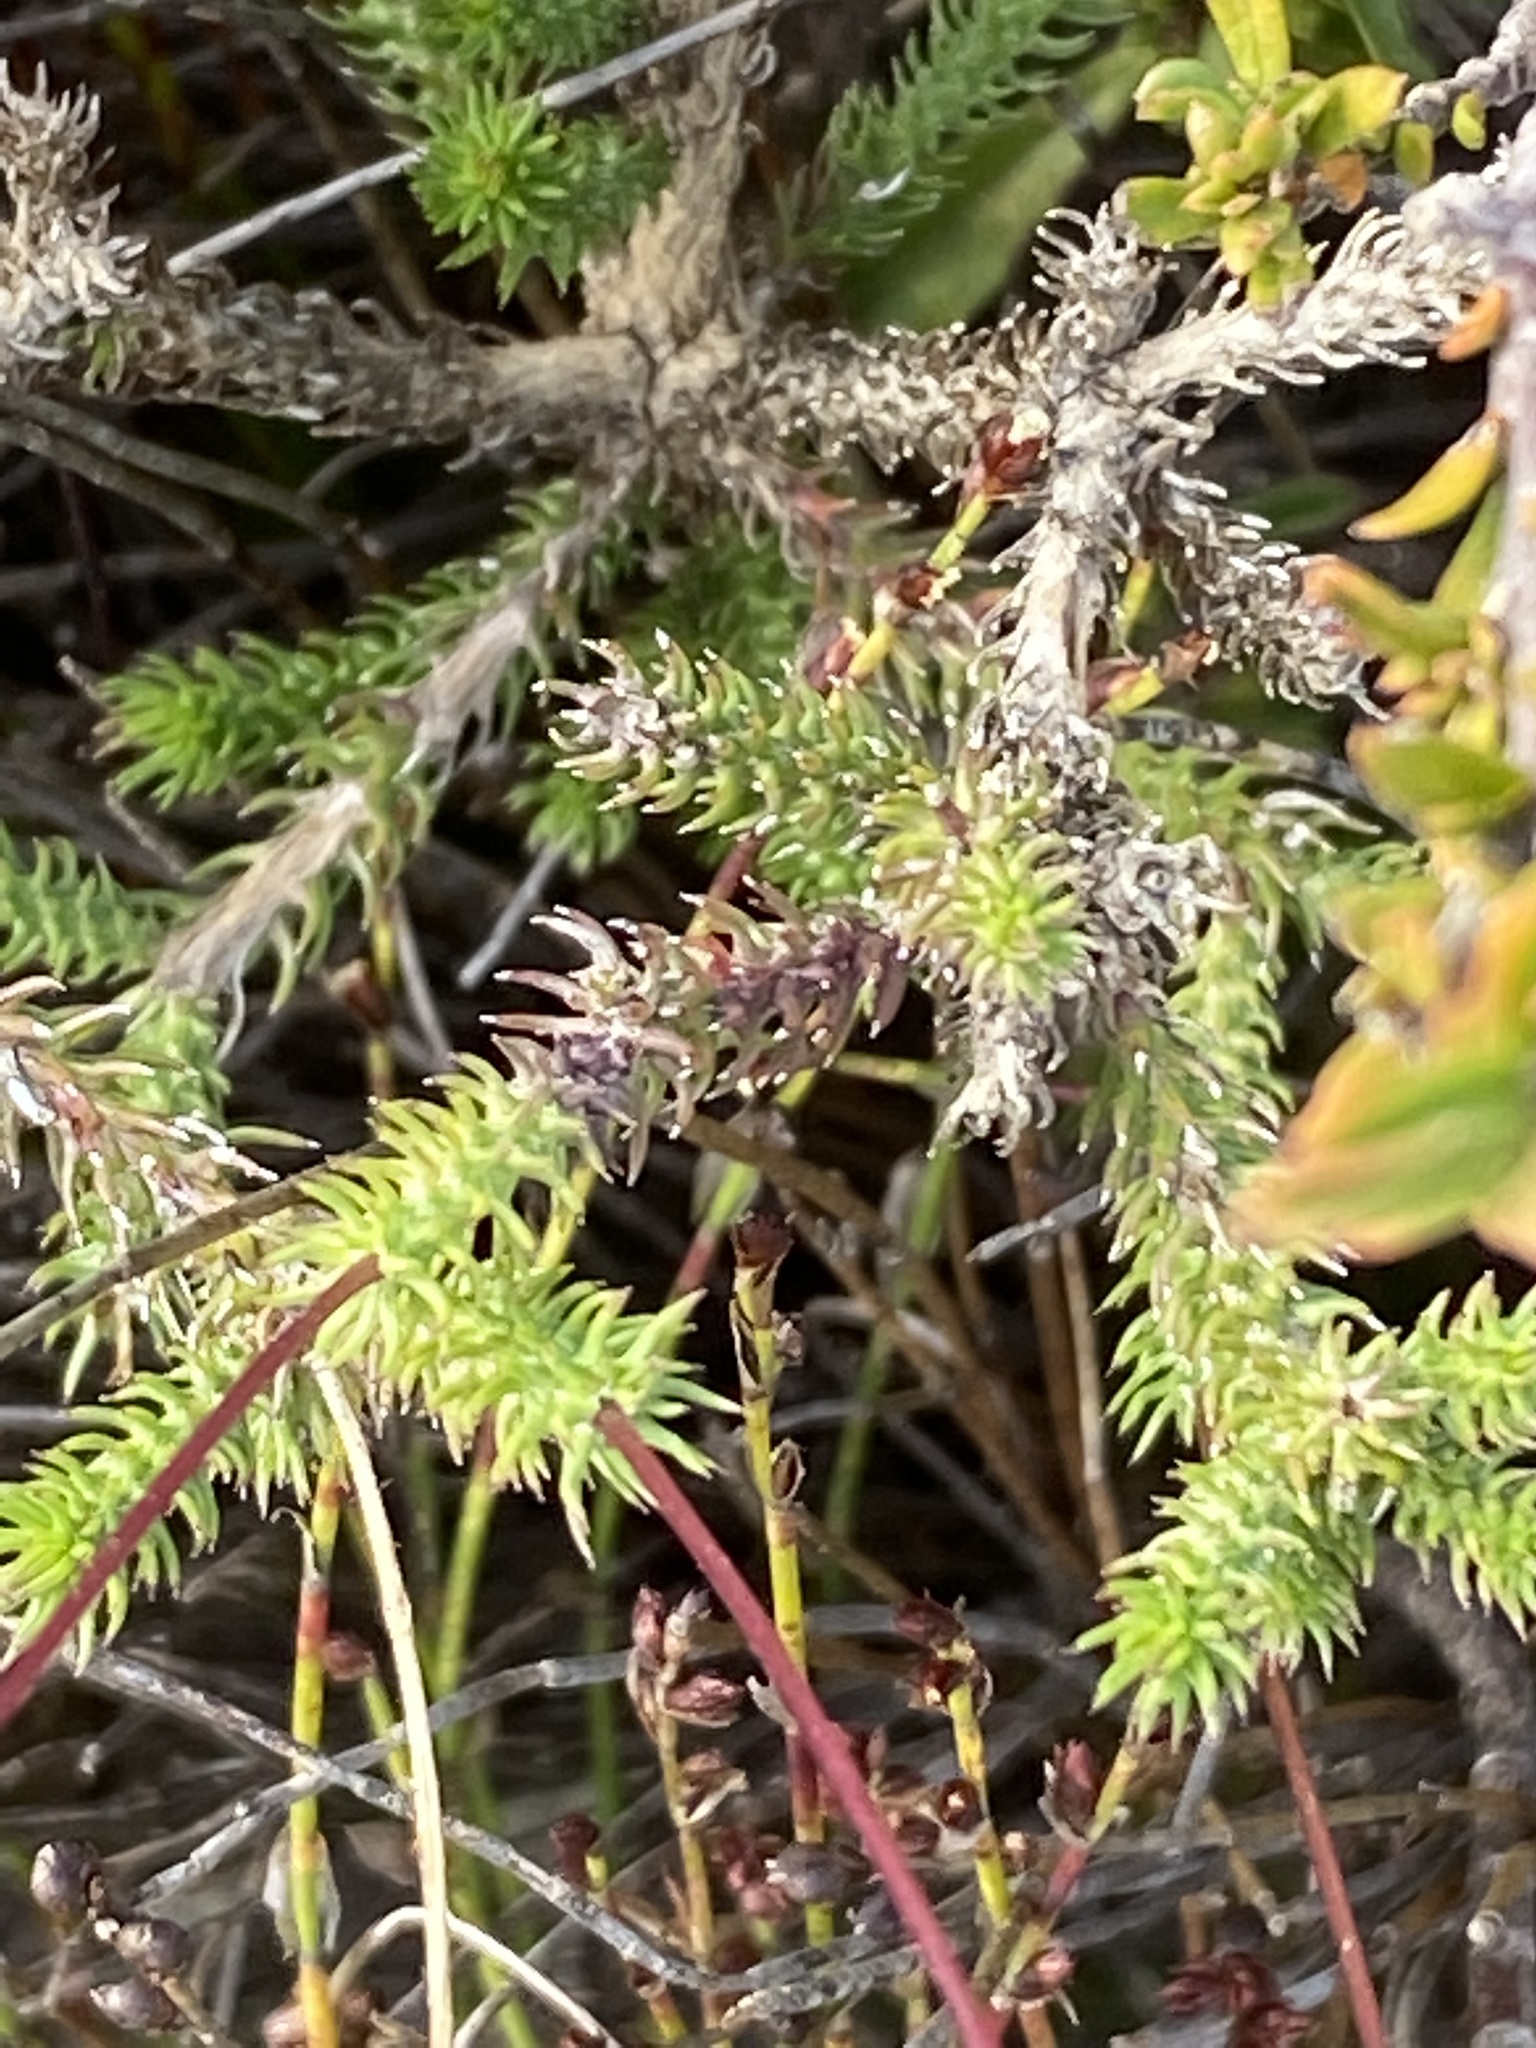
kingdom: Plantae
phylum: Tracheophyta
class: Magnoliopsida
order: Asterales
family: Asteraceae
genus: Euryops
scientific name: Euryops ericoides
